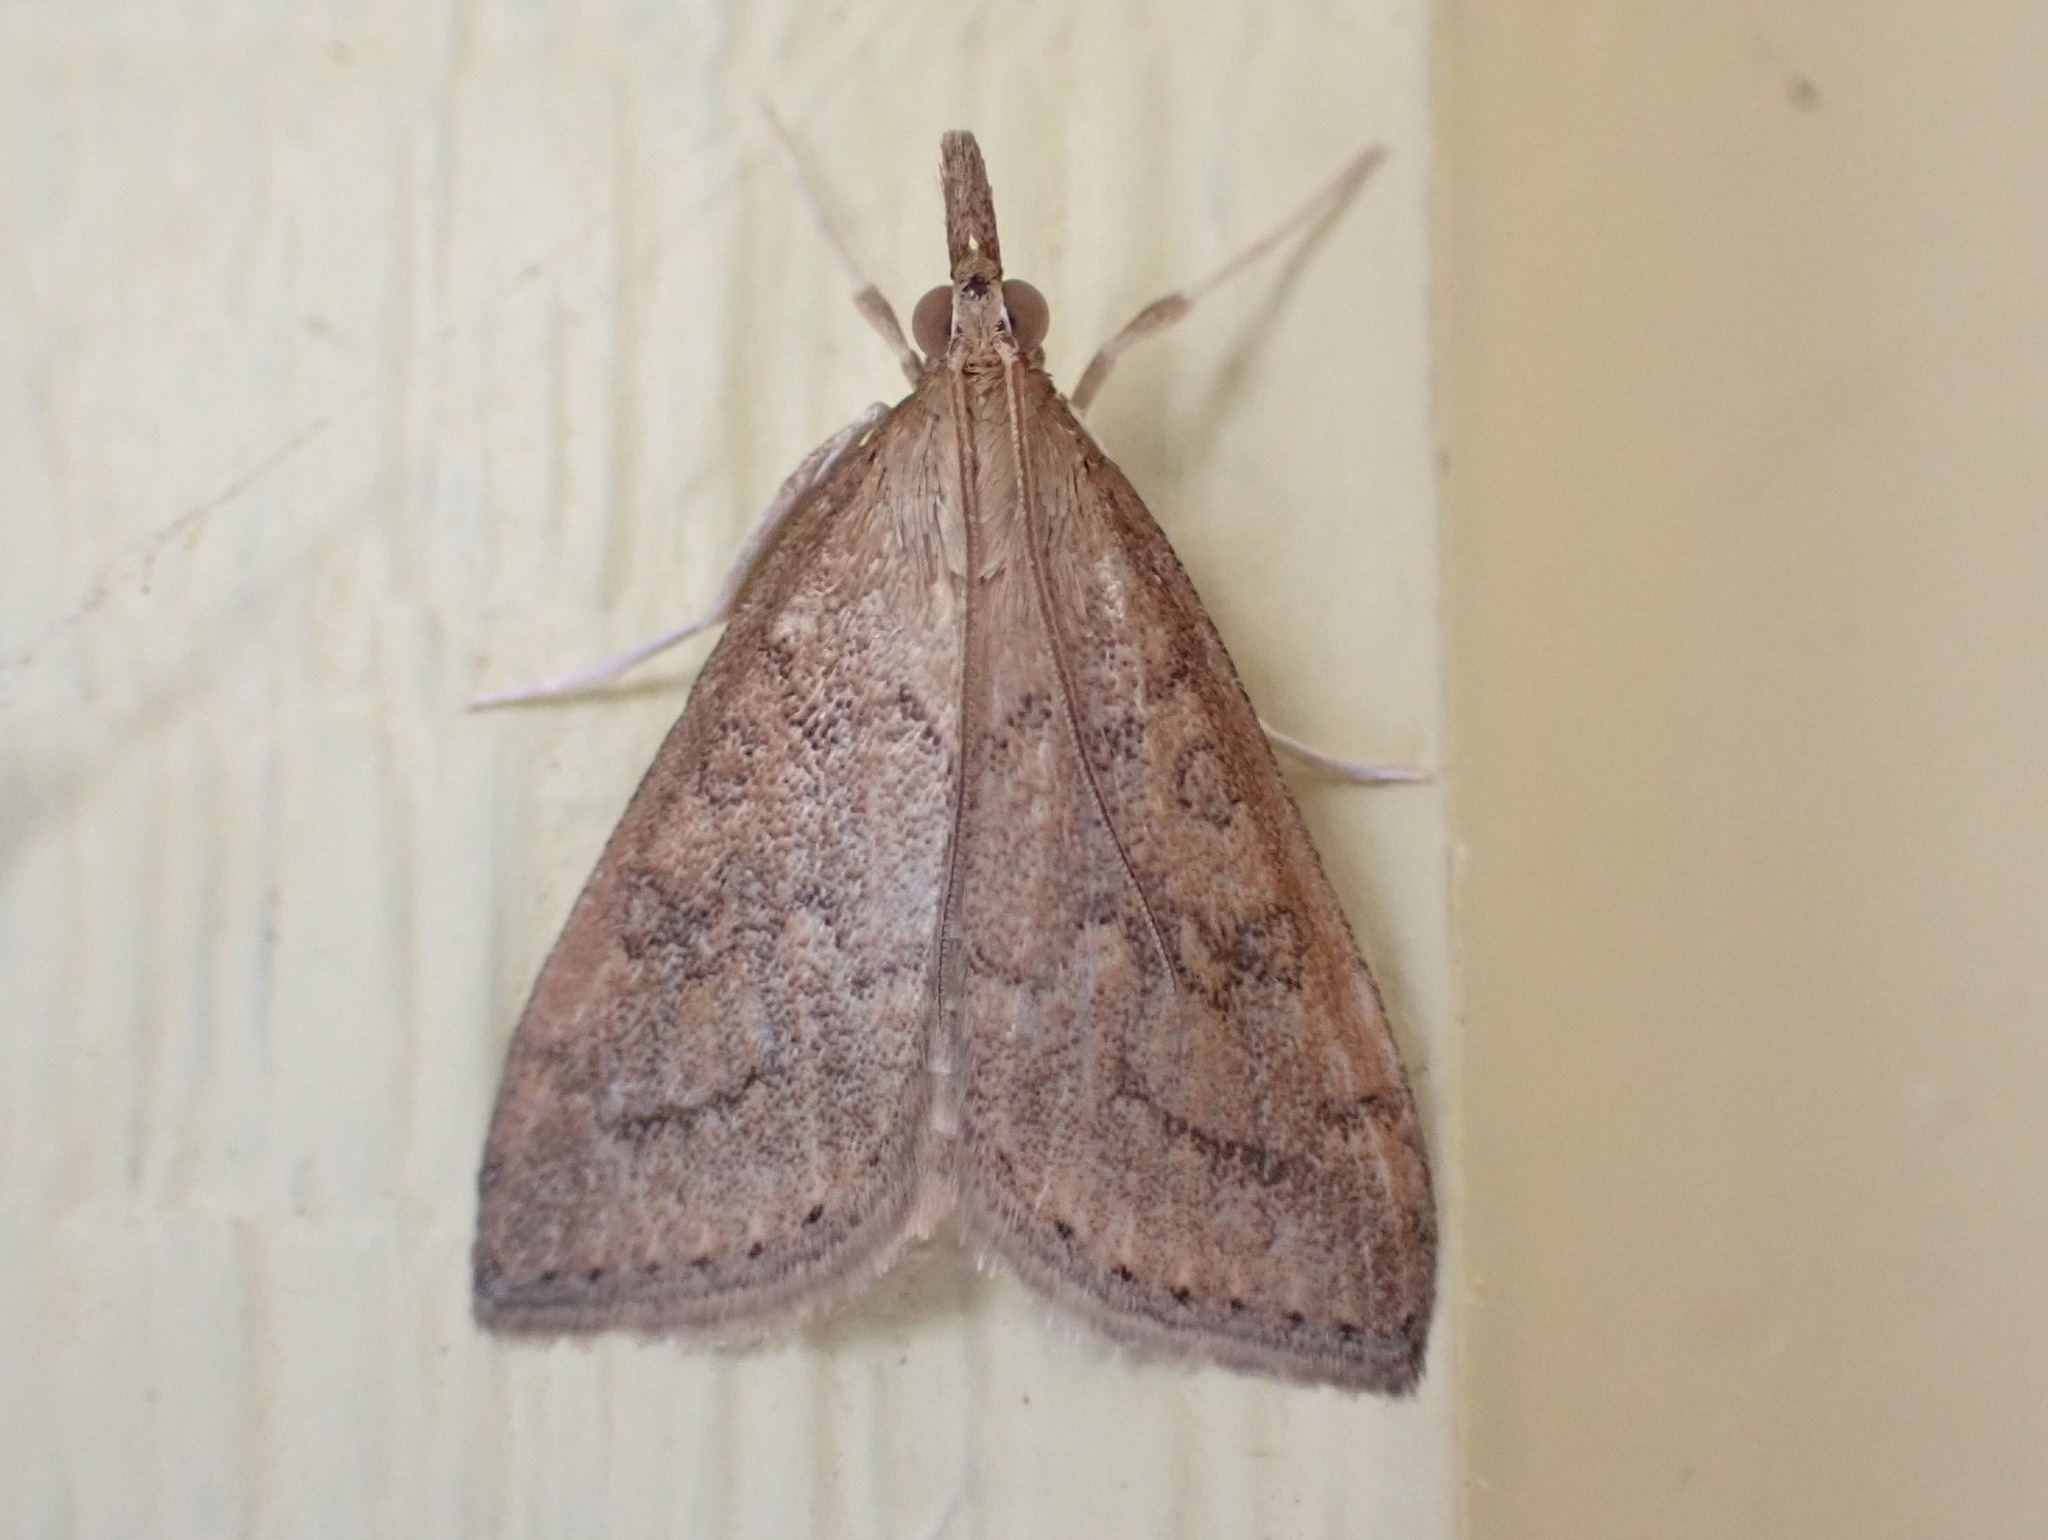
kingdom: Animalia
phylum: Arthropoda
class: Insecta
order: Lepidoptera
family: Crambidae
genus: Udea
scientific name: Udea rubigalis
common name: Celery leaftier moth
